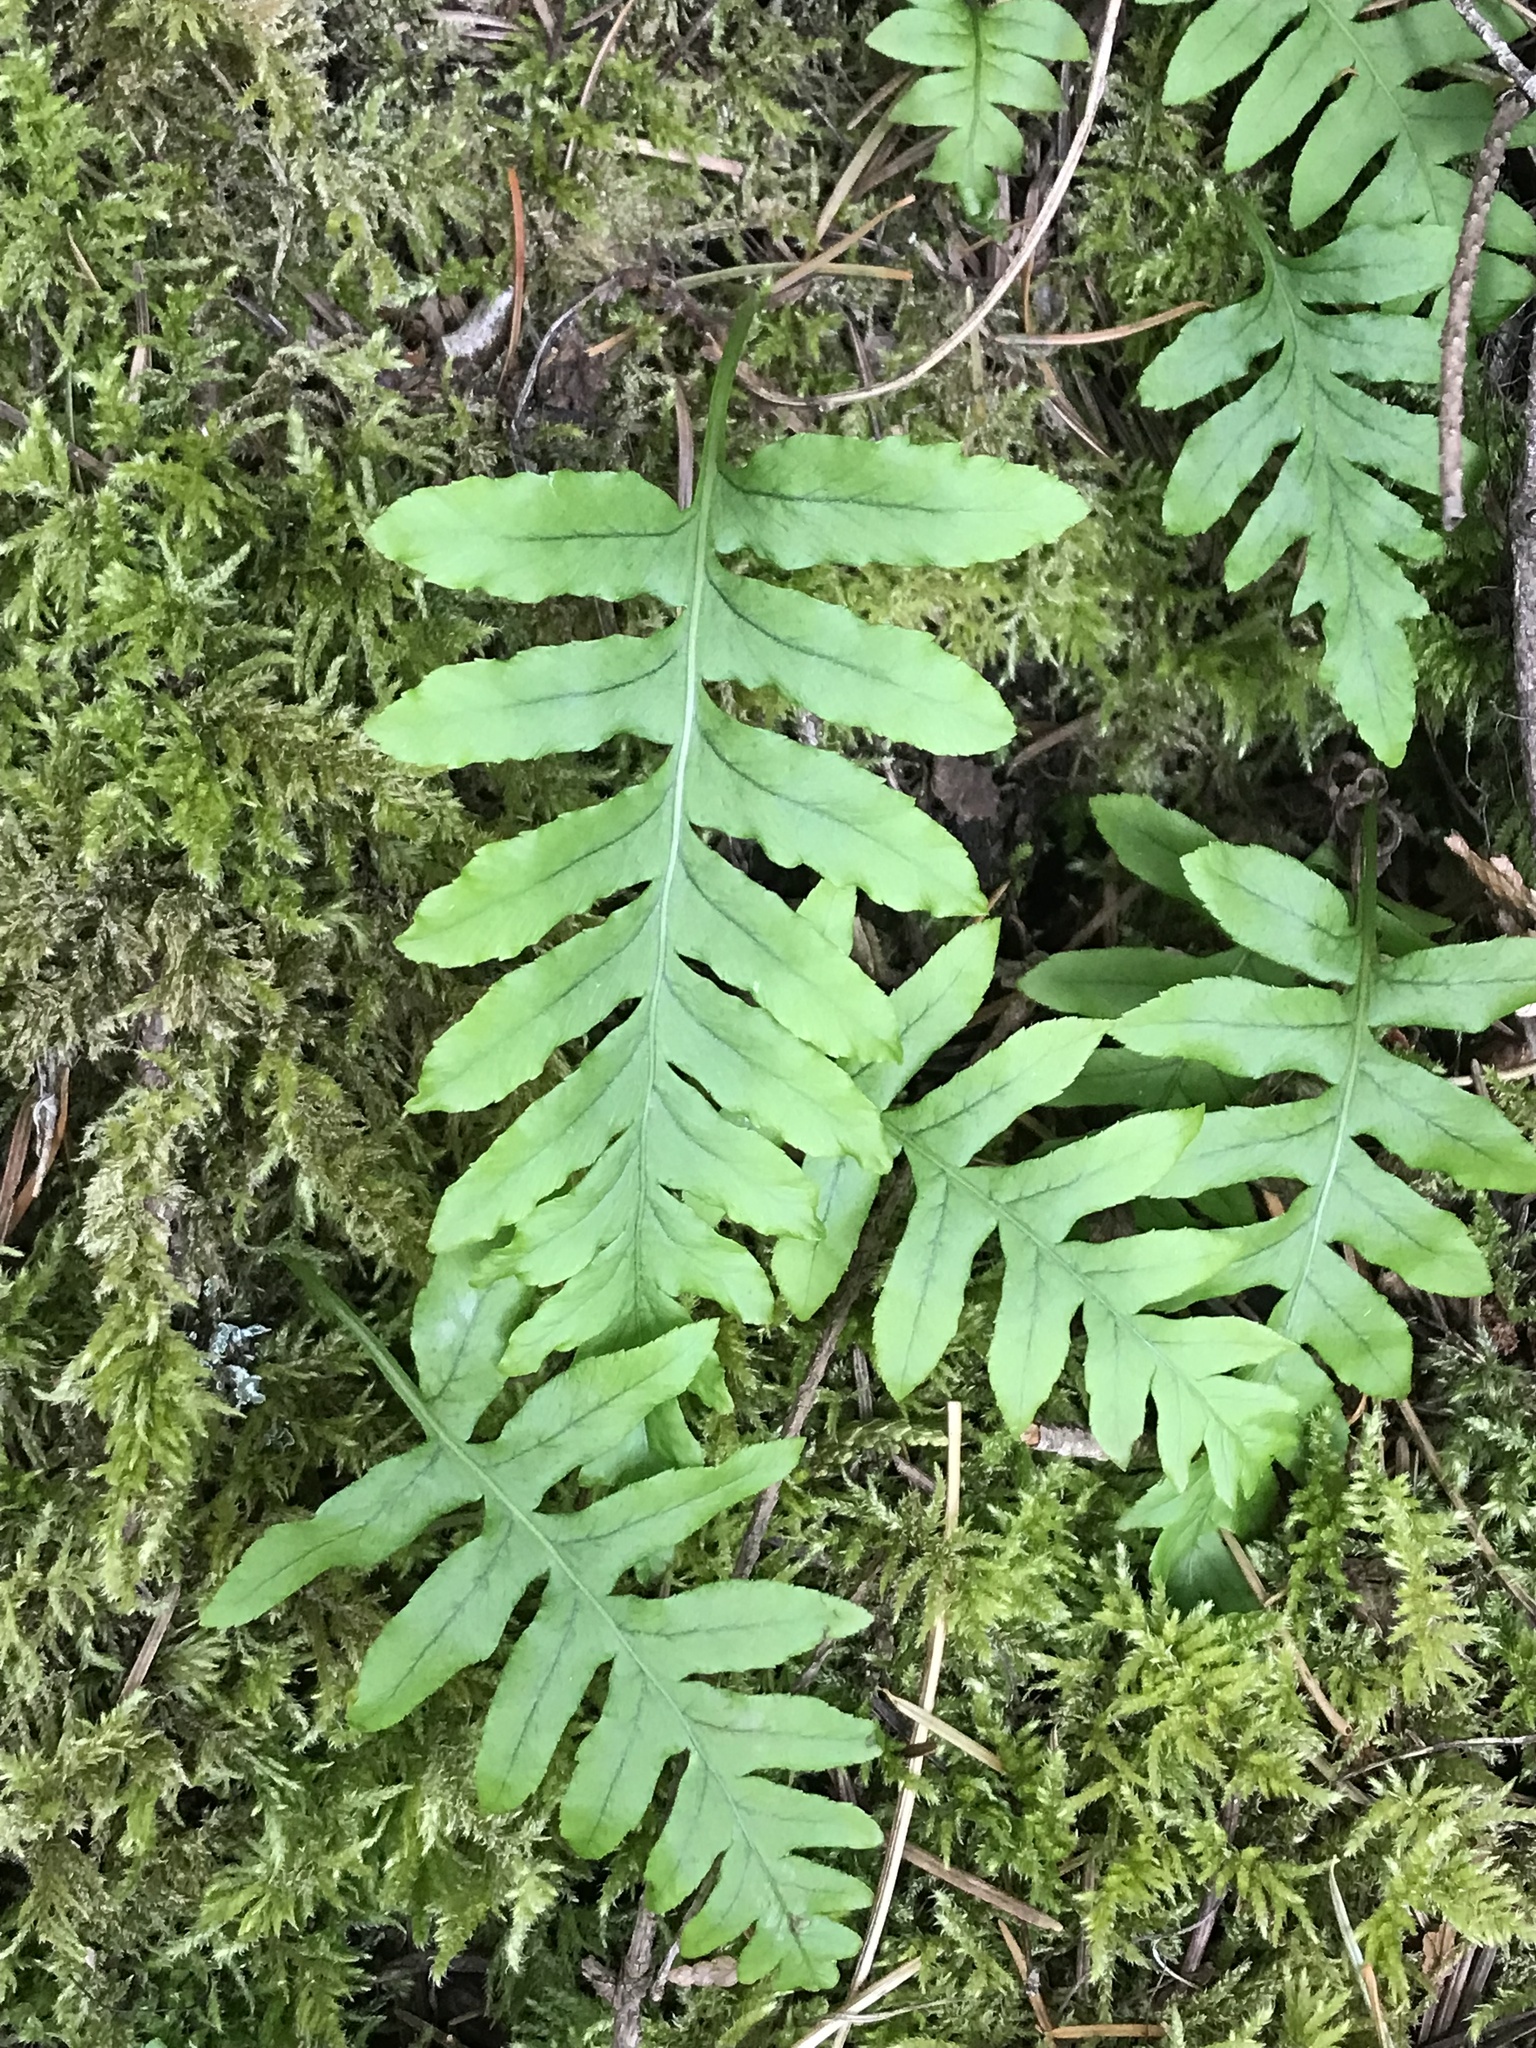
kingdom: Plantae
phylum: Tracheophyta
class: Polypodiopsida
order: Polypodiales
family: Polypodiaceae
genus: Polypodium
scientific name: Polypodium glycyrrhiza
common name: Licorice fern
